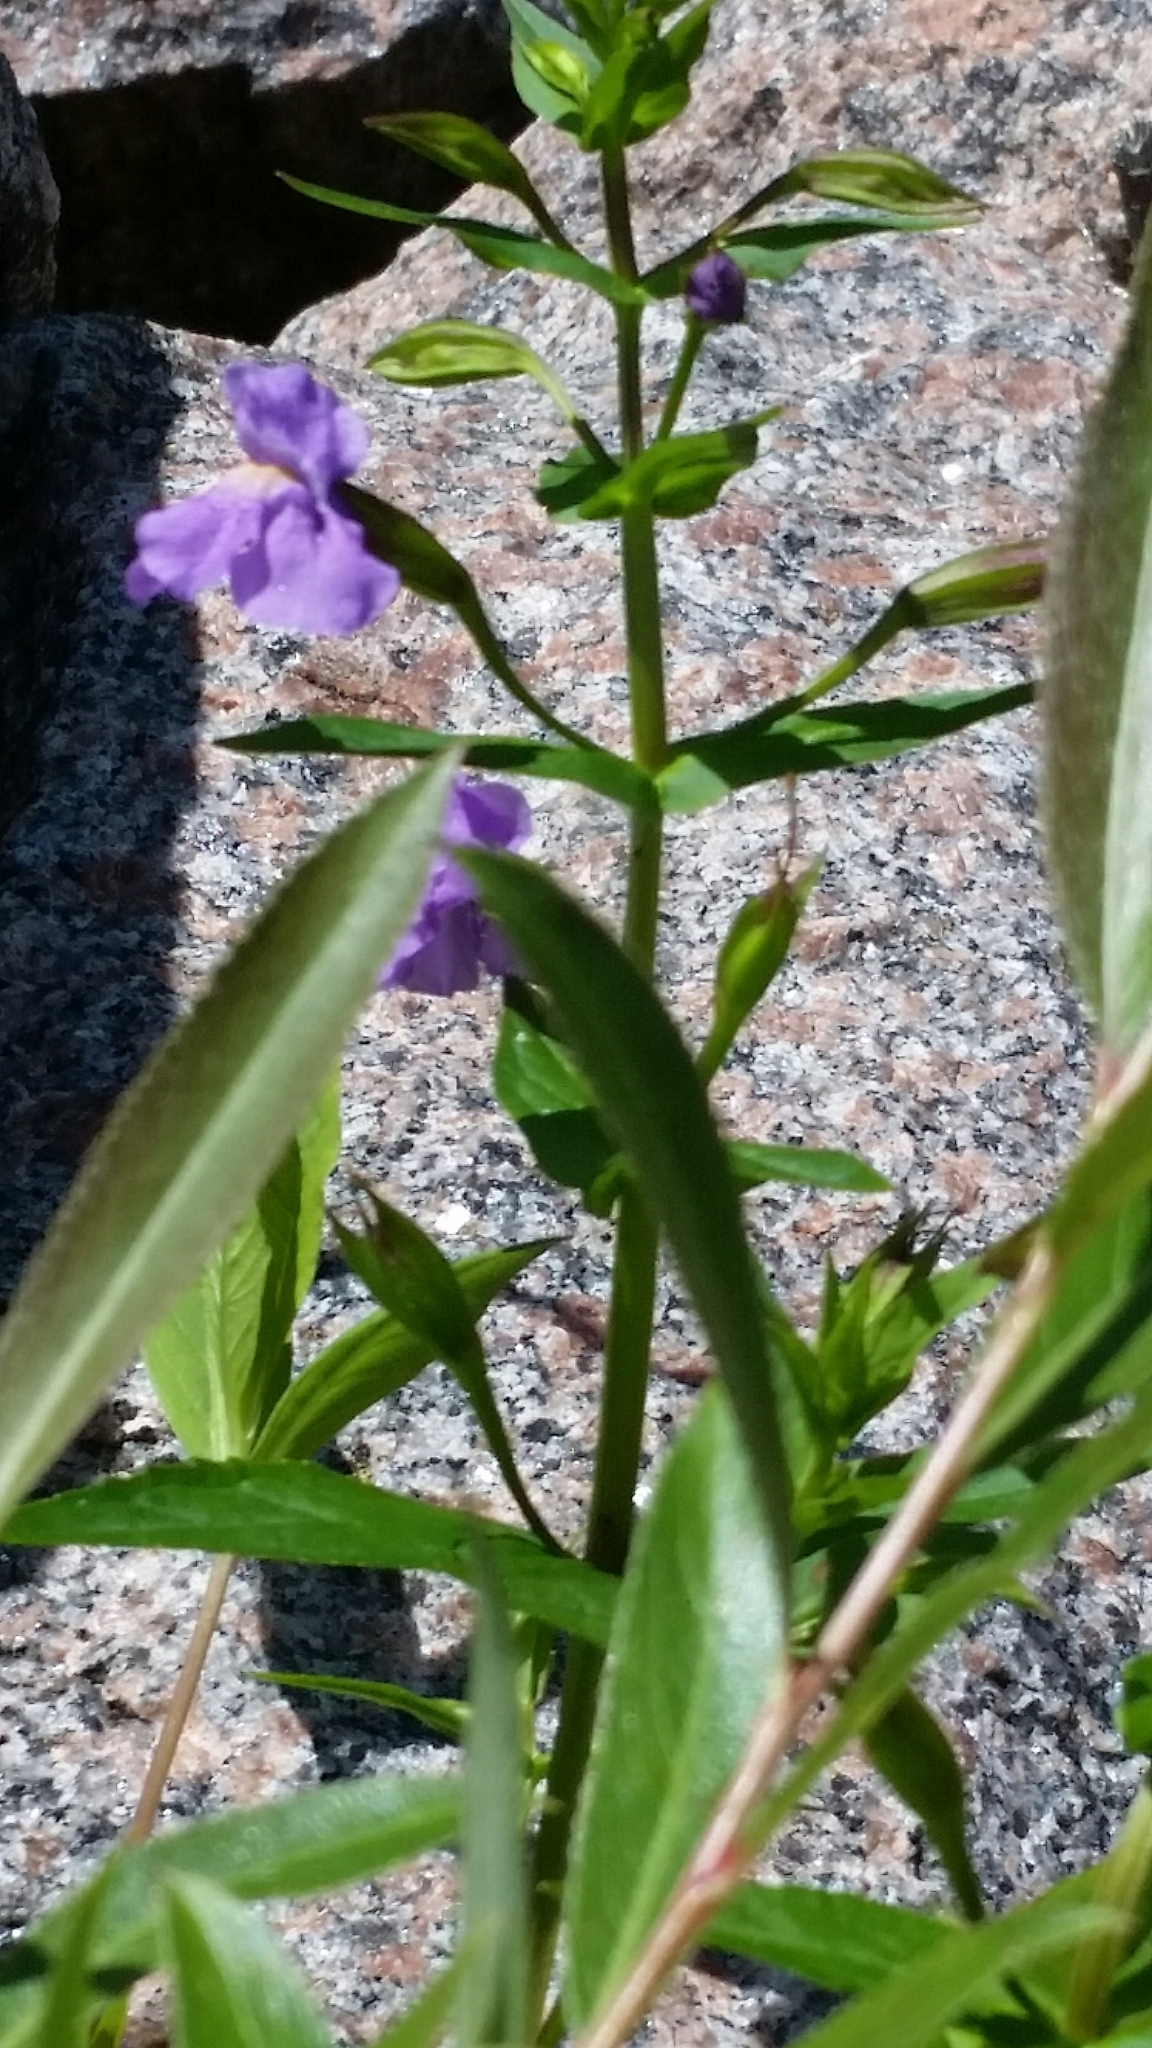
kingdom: Plantae
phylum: Tracheophyta
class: Magnoliopsida
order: Lamiales
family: Phrymaceae
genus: Mimulus
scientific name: Mimulus ringens
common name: Allegheny monkeyflower
